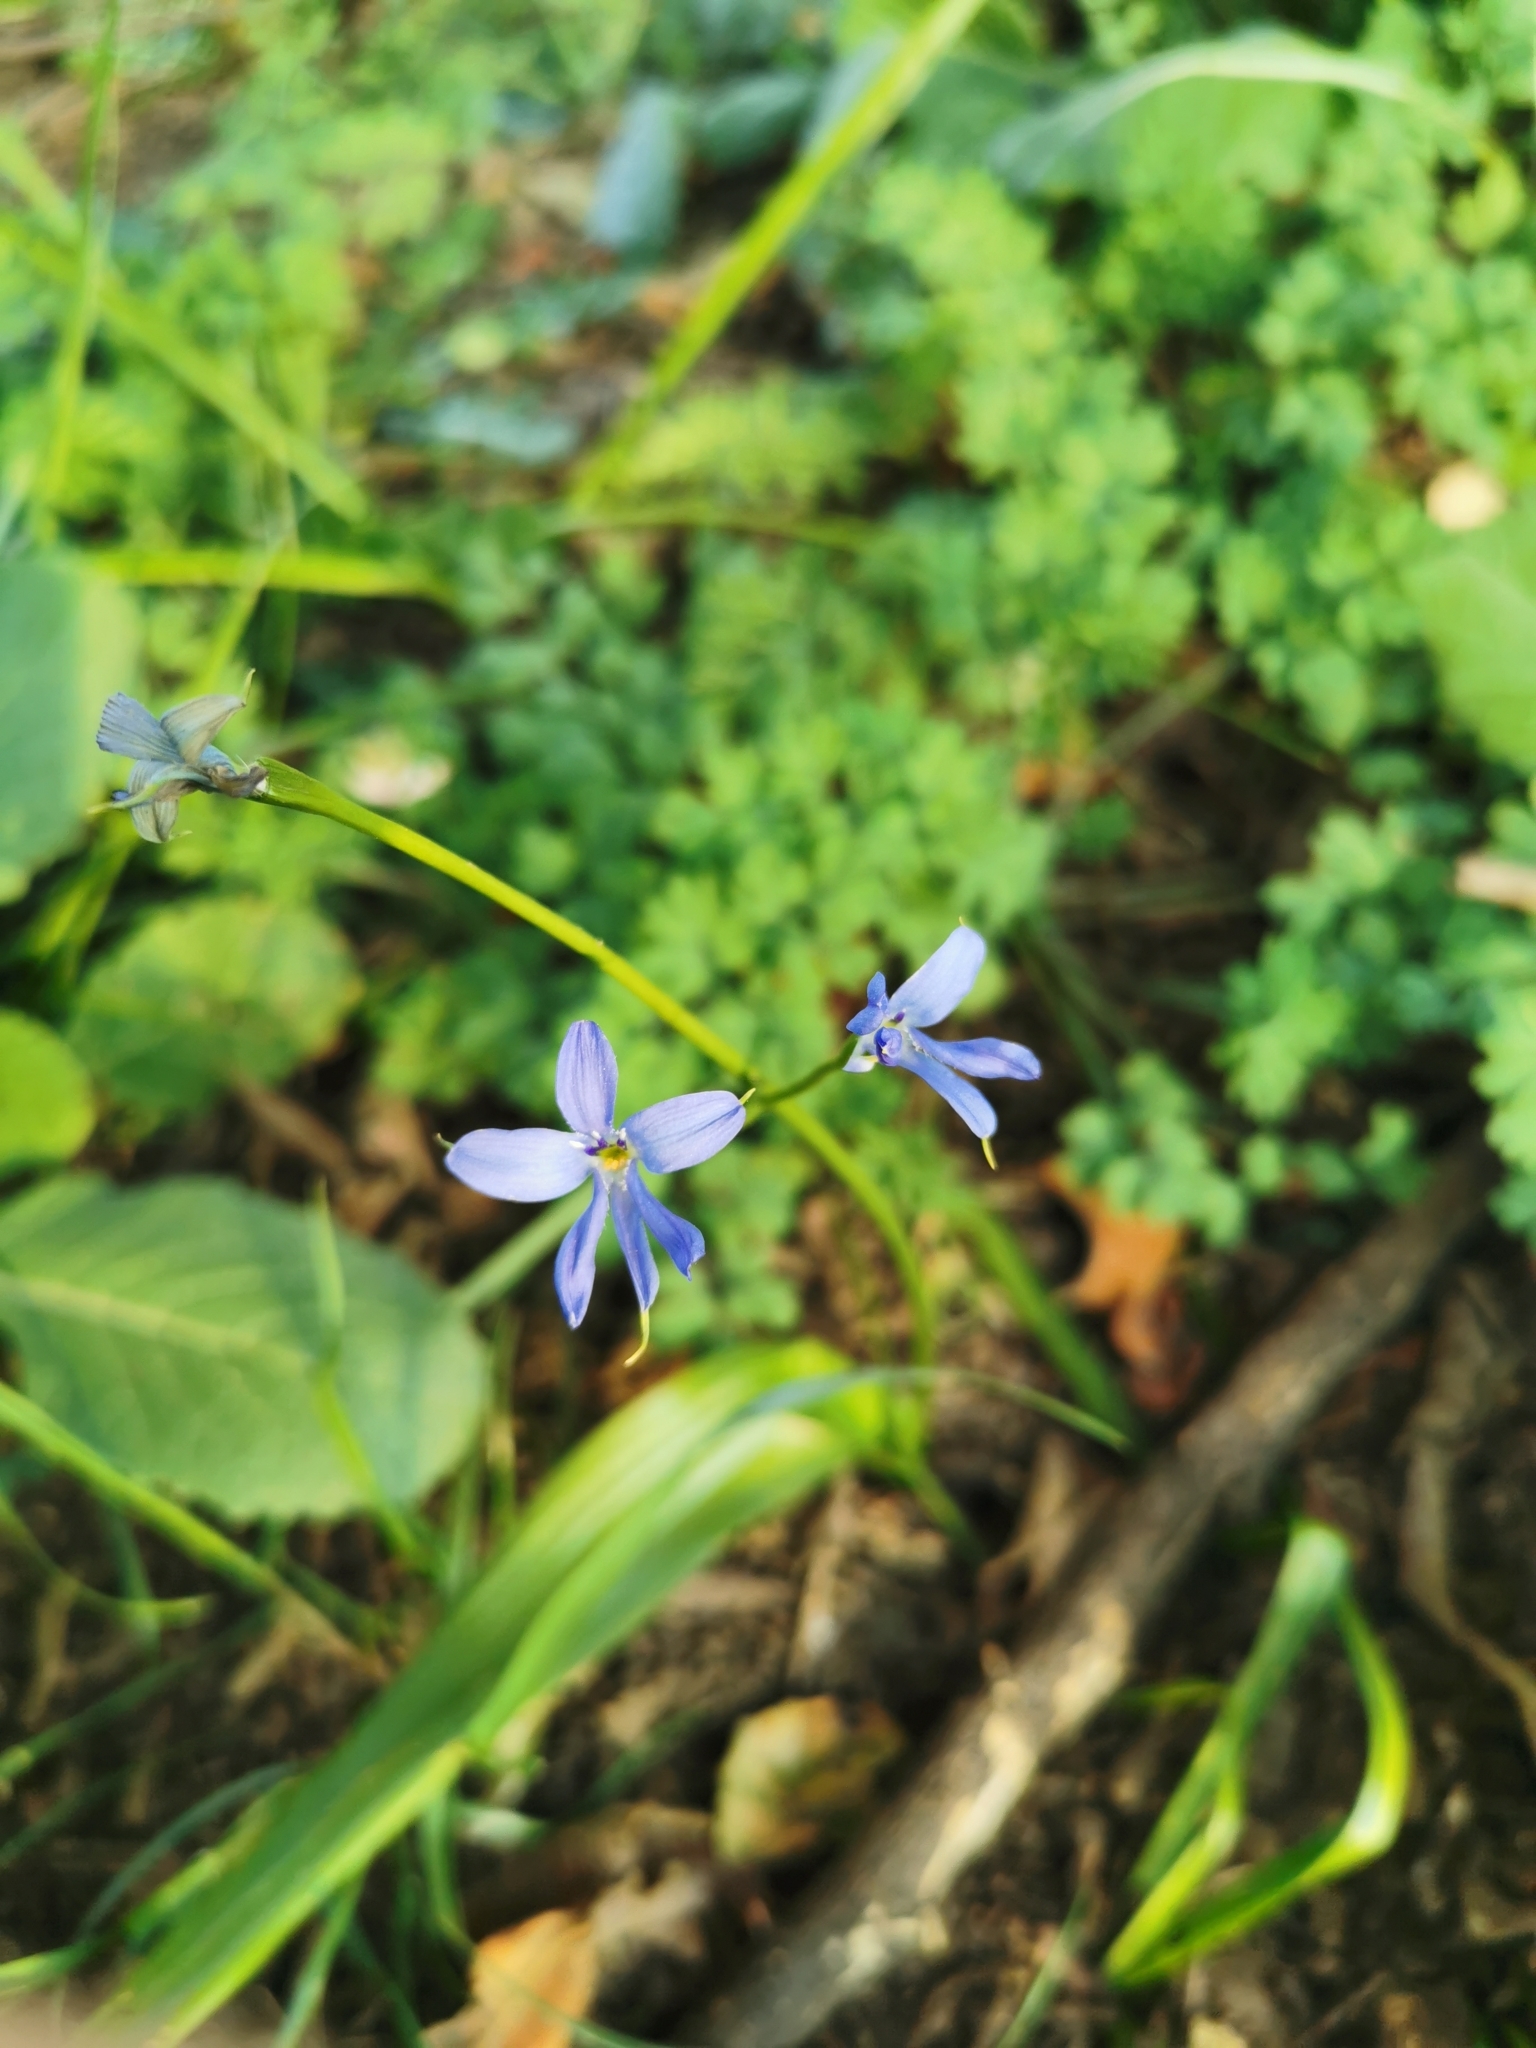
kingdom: Plantae
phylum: Tracheophyta
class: Liliopsida
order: Asparagales
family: Tecophilaeaceae
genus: Tecophilaea
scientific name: Tecophilaea violiflora
